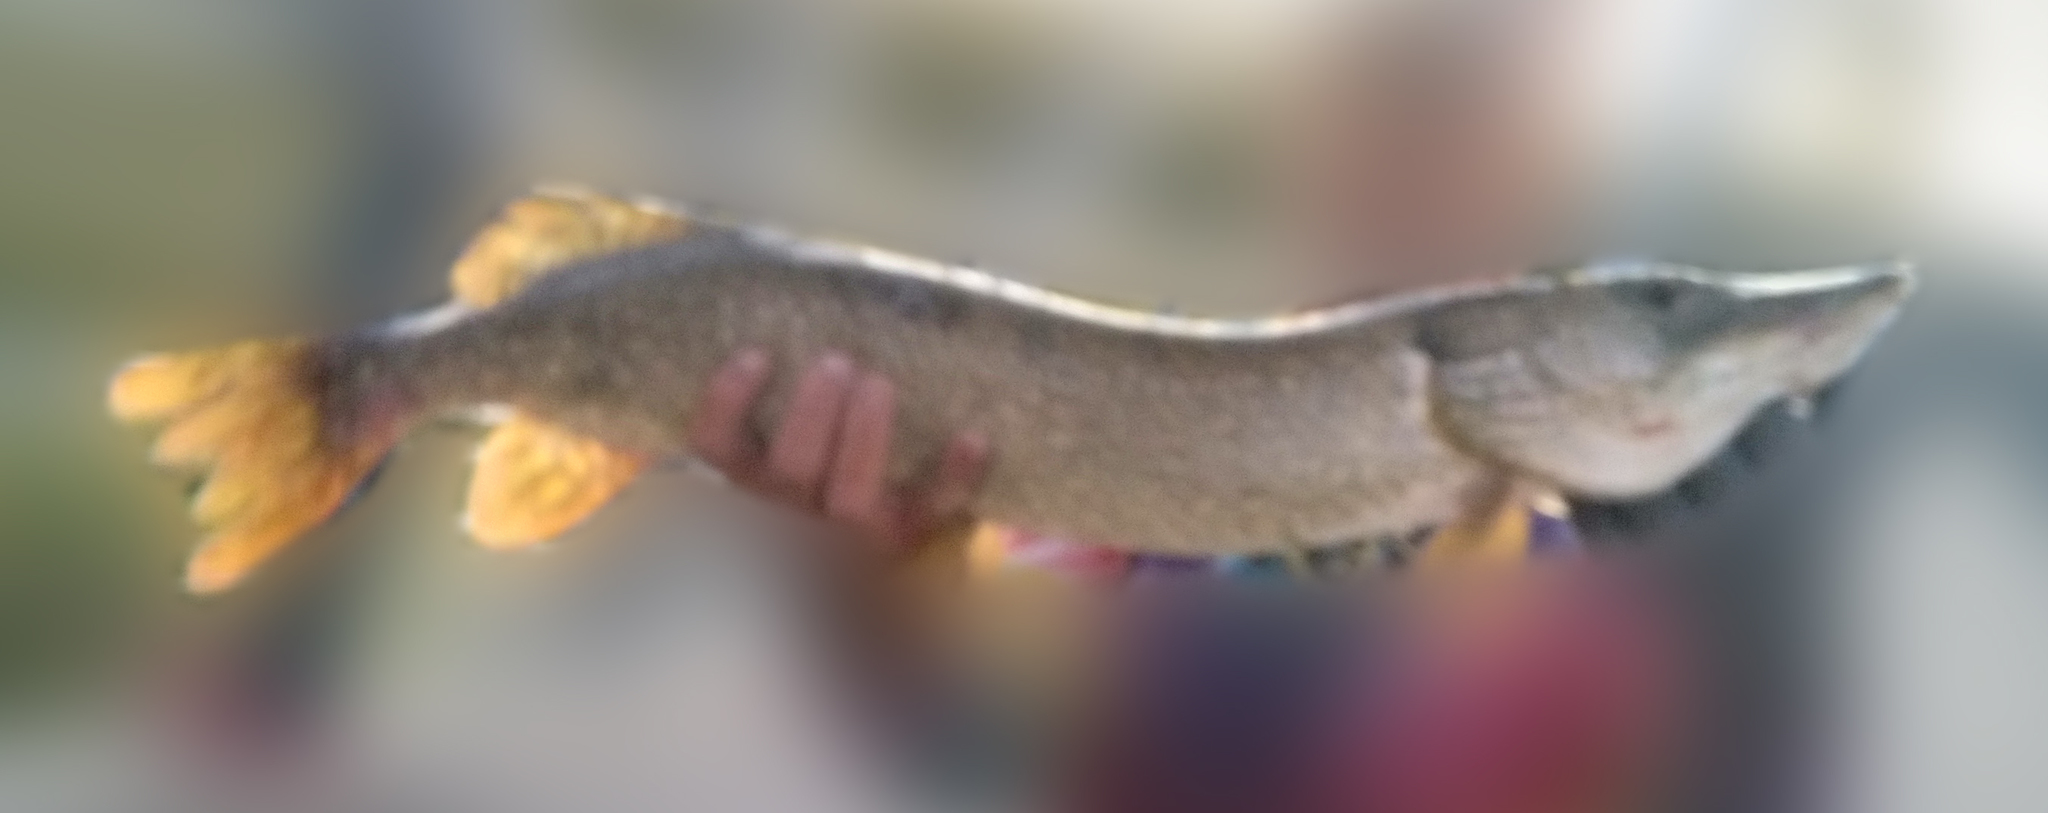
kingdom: Animalia
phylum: Chordata
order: Esociformes
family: Esocidae
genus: Esox
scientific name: Esox lucius
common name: Northern pike
